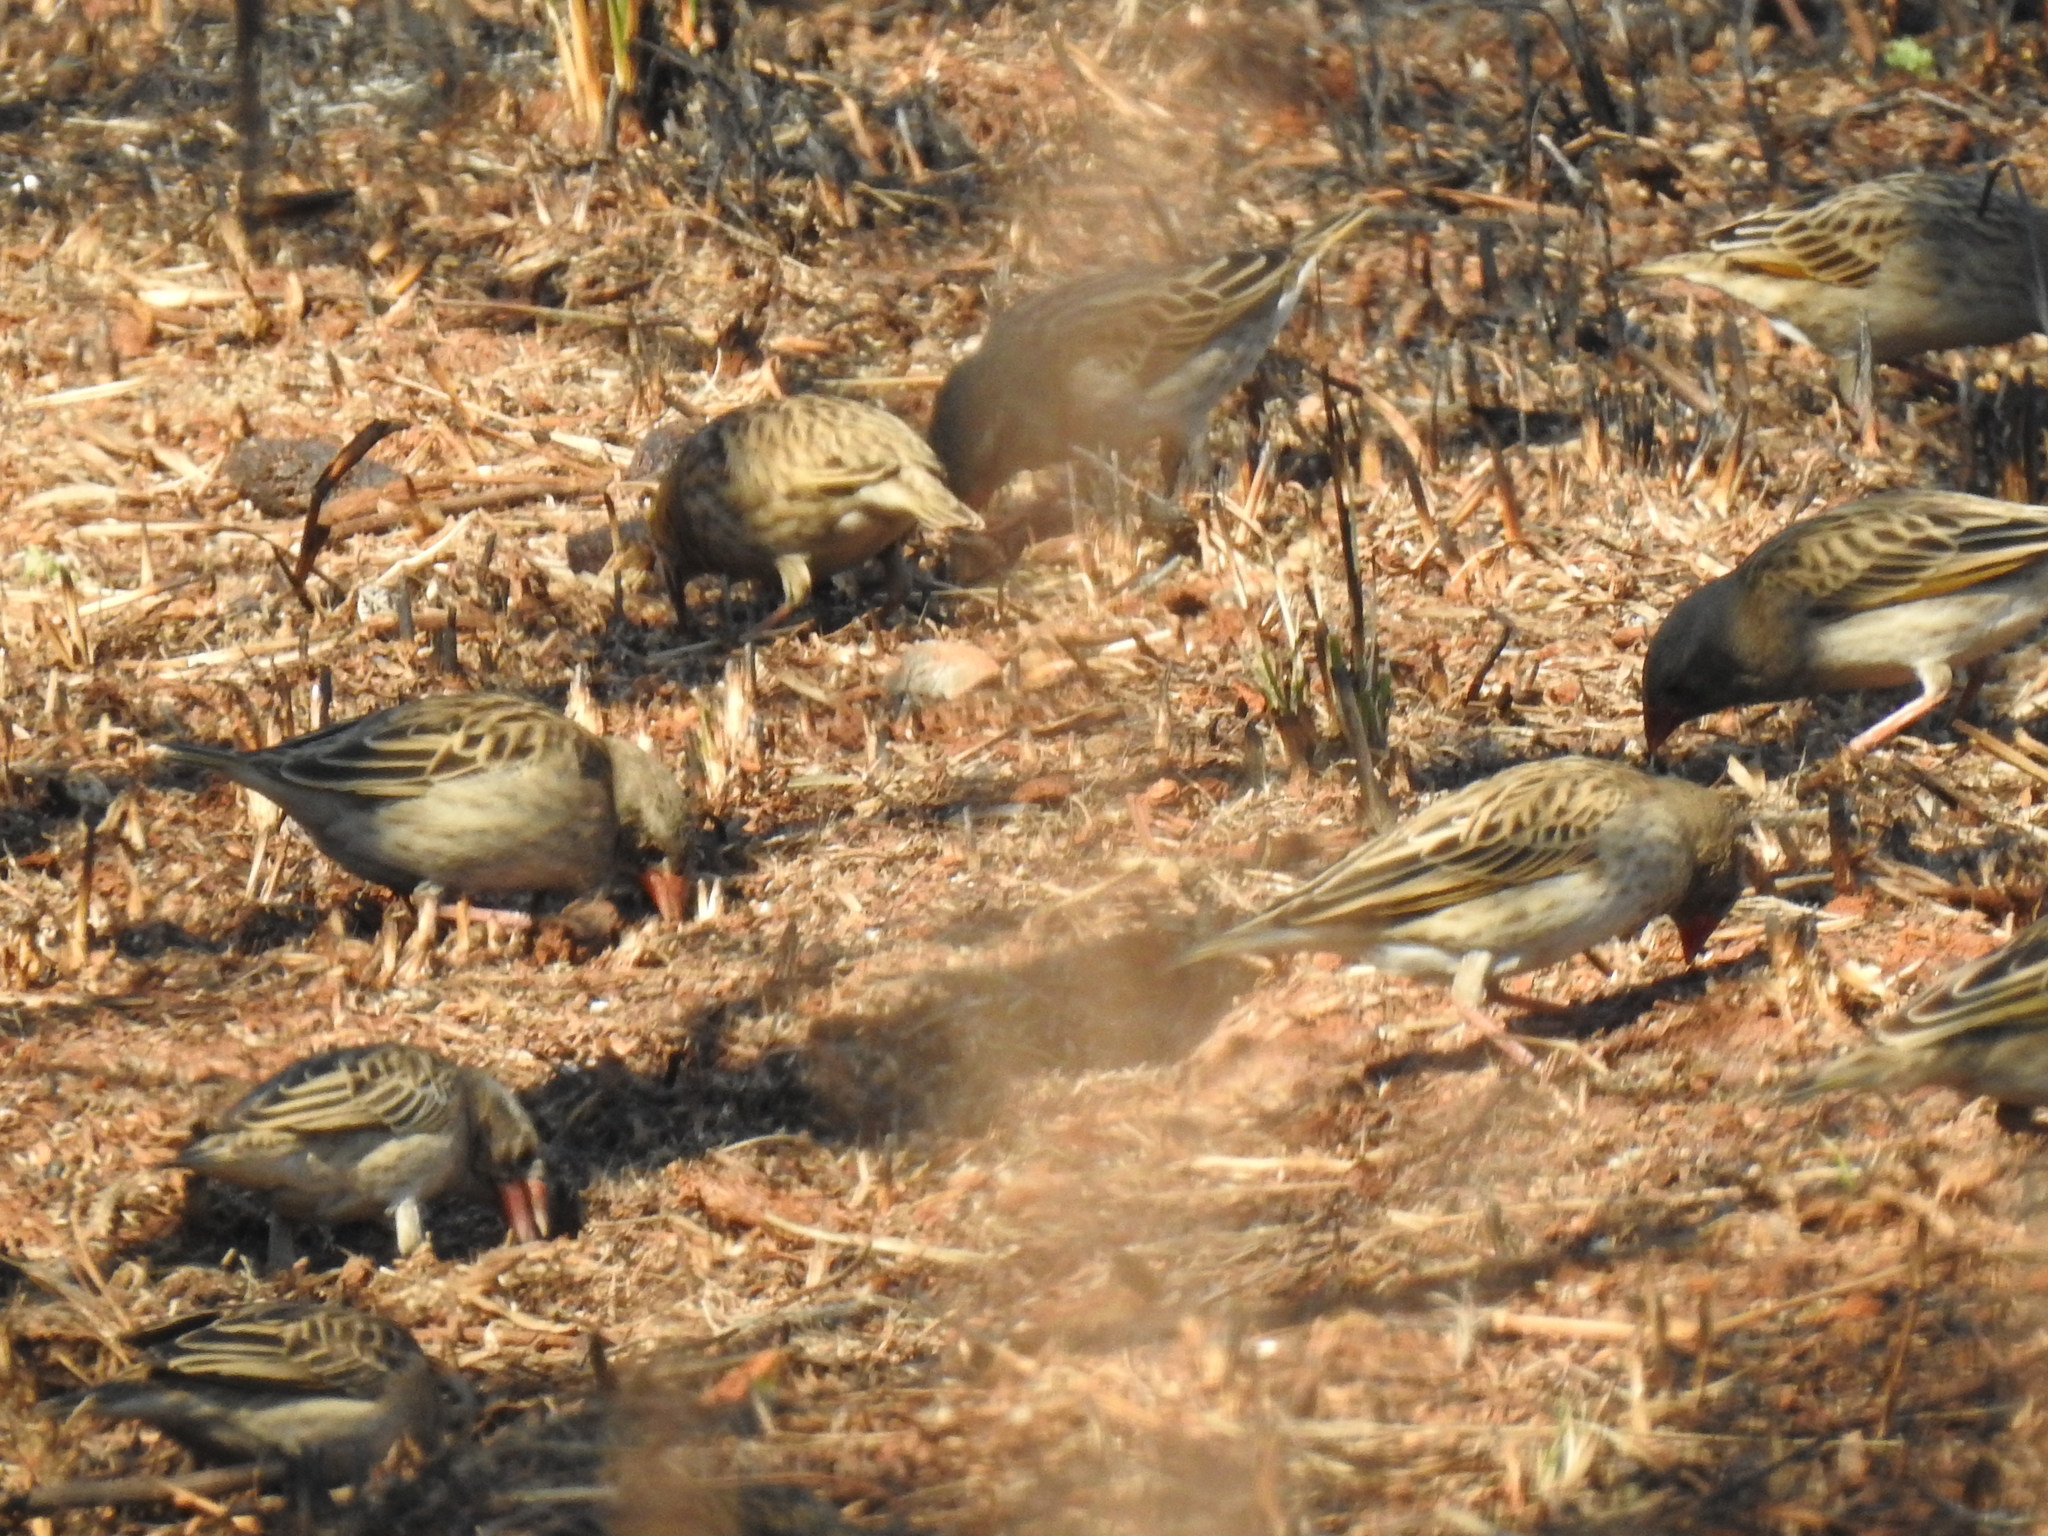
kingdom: Animalia
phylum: Chordata
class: Aves
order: Passeriformes
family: Ploceidae
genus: Quelea
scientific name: Quelea quelea
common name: Red-billed quelea
